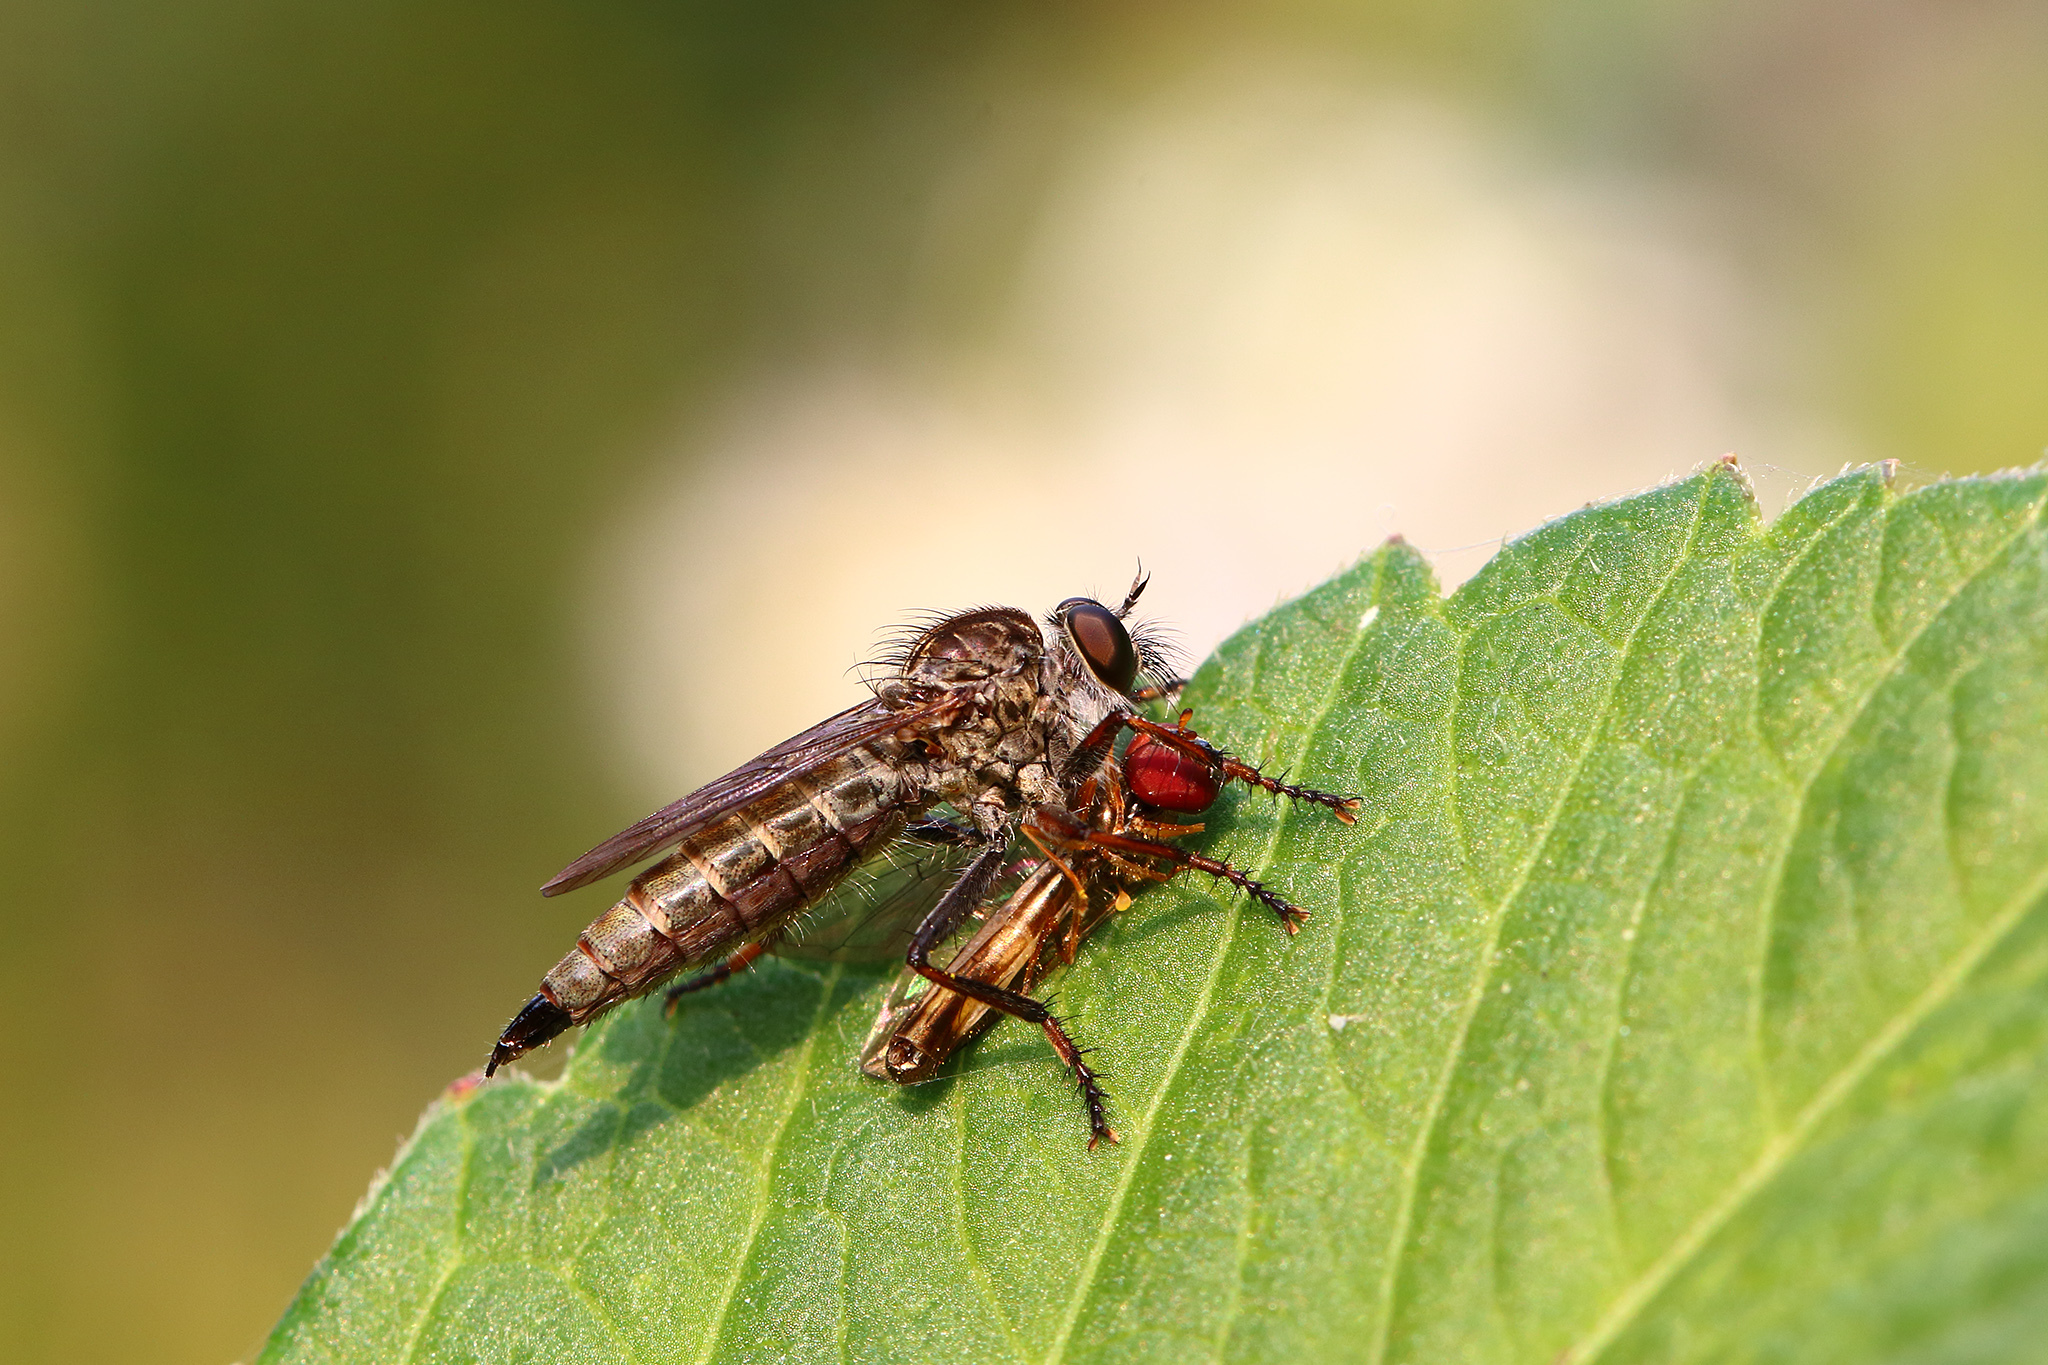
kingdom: Animalia
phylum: Arthropoda
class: Insecta
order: Diptera
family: Asilidae
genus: Machimus
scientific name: Machimus atricapillus
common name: Kite-tailed robberfly
